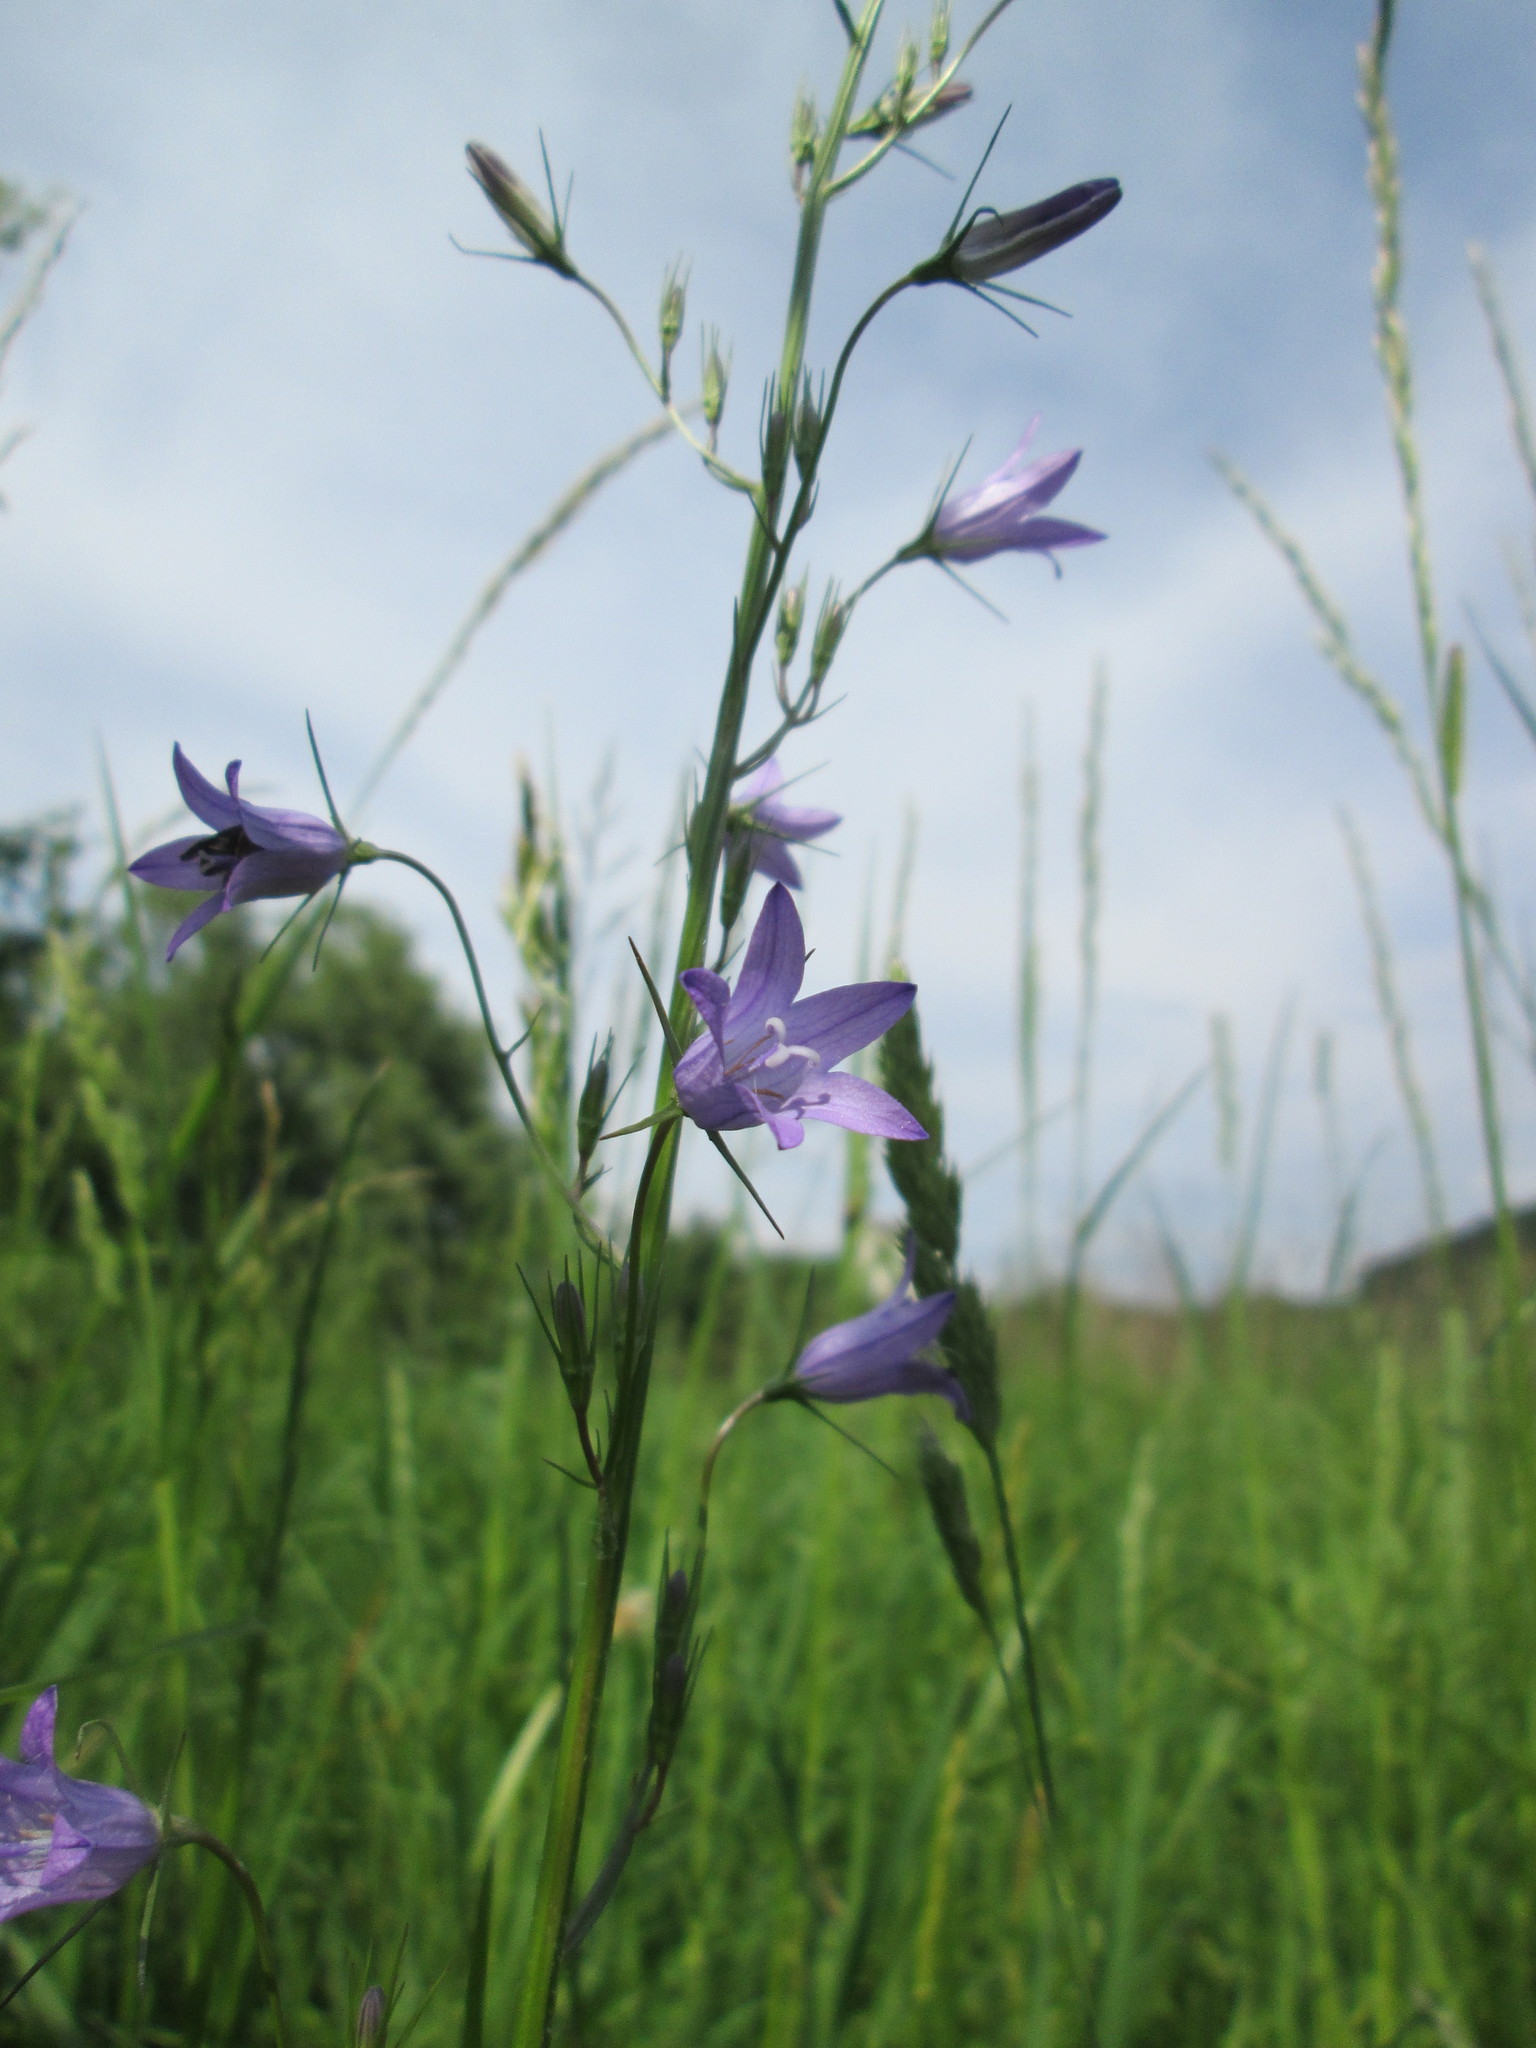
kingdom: Plantae
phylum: Tracheophyta
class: Magnoliopsida
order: Asterales
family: Campanulaceae
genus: Campanula
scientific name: Campanula rapunculus
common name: Rampion bellflower
